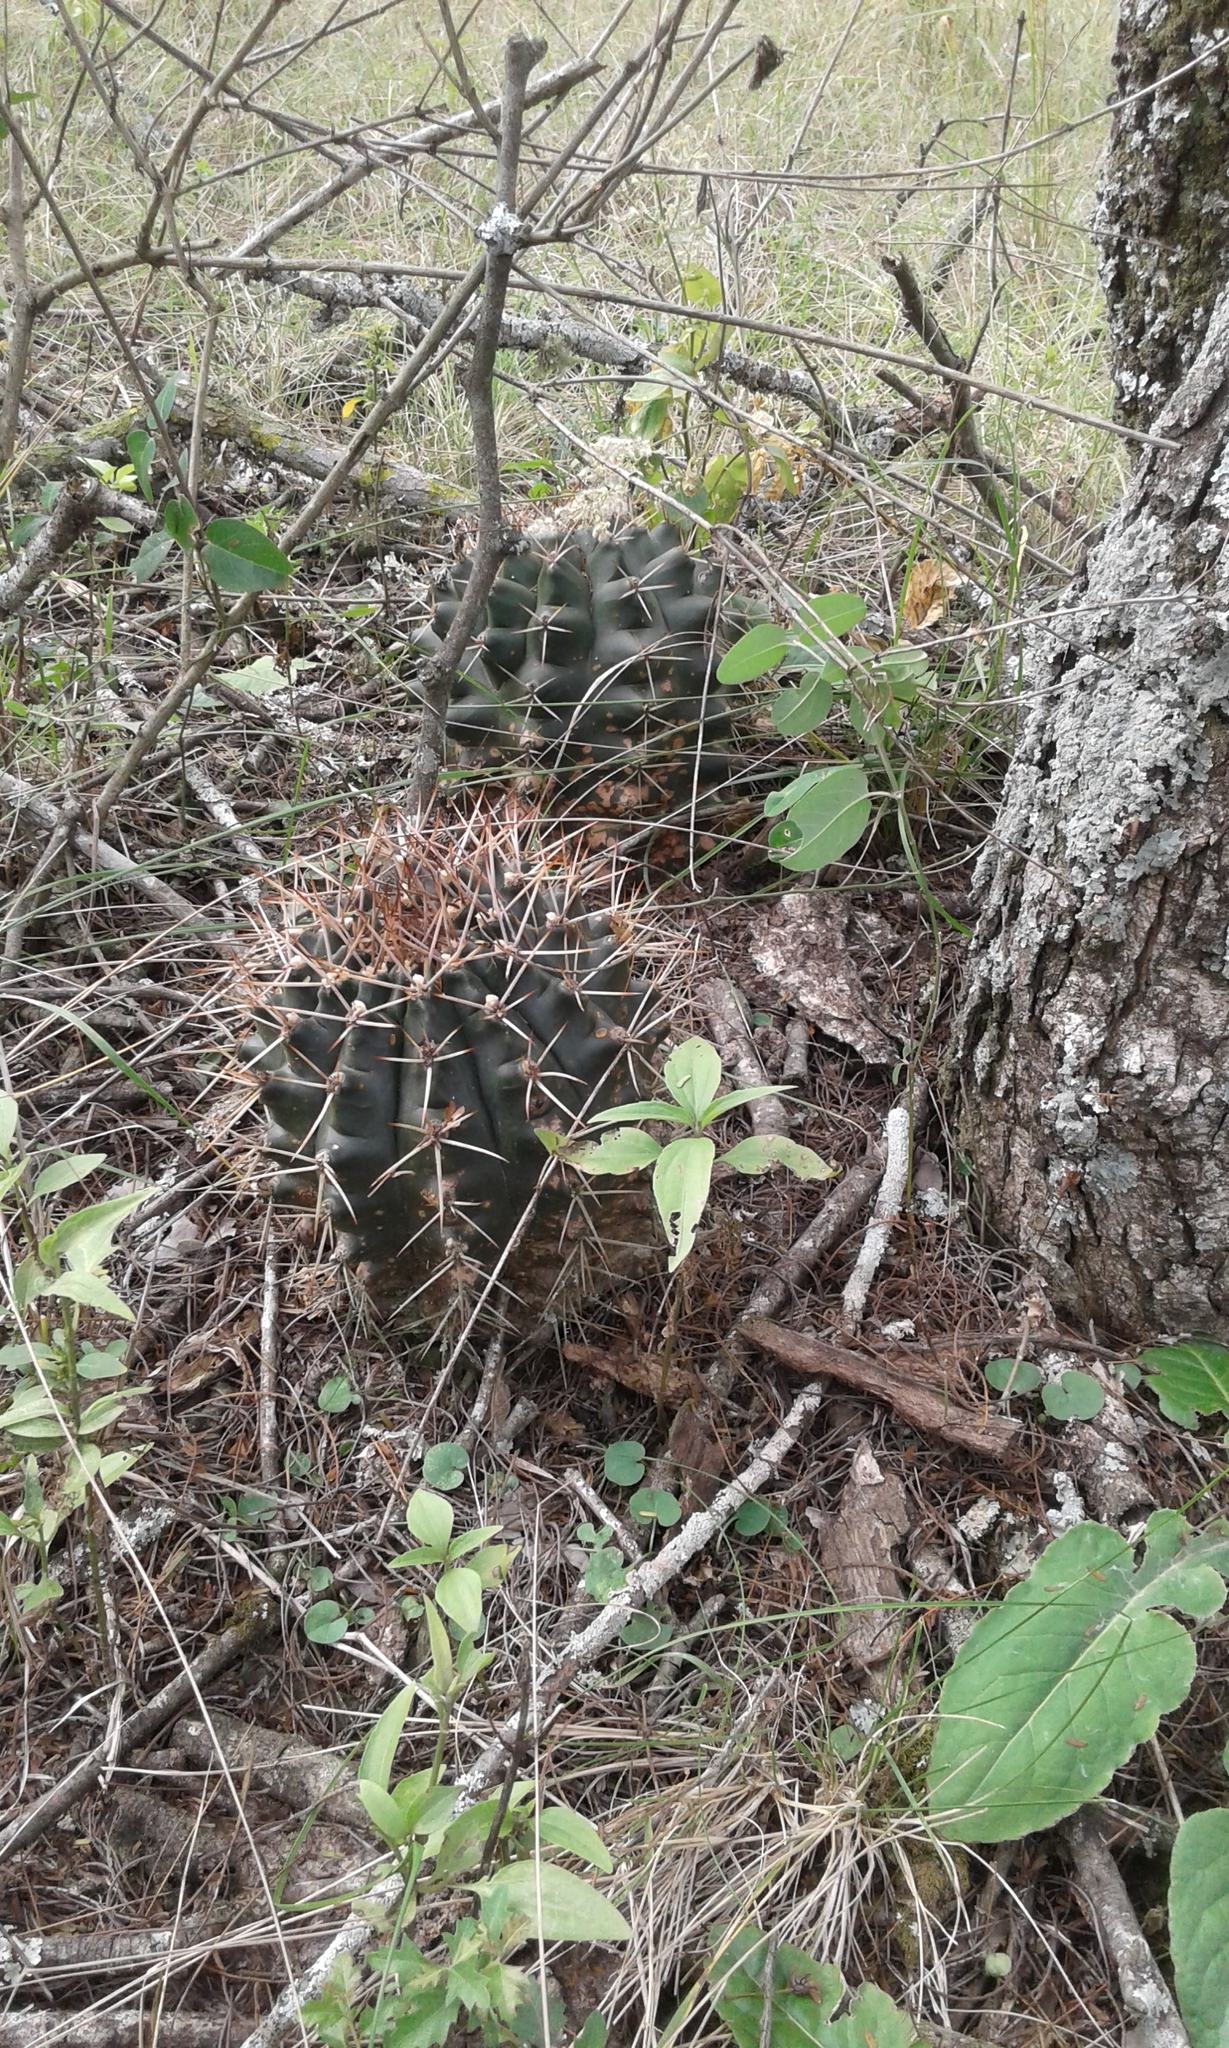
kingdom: Plantae
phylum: Tracheophyta
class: Magnoliopsida
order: Caryophyllales
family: Cactaceae
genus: Gymnocalycium
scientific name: Gymnocalycium schickendantzii
